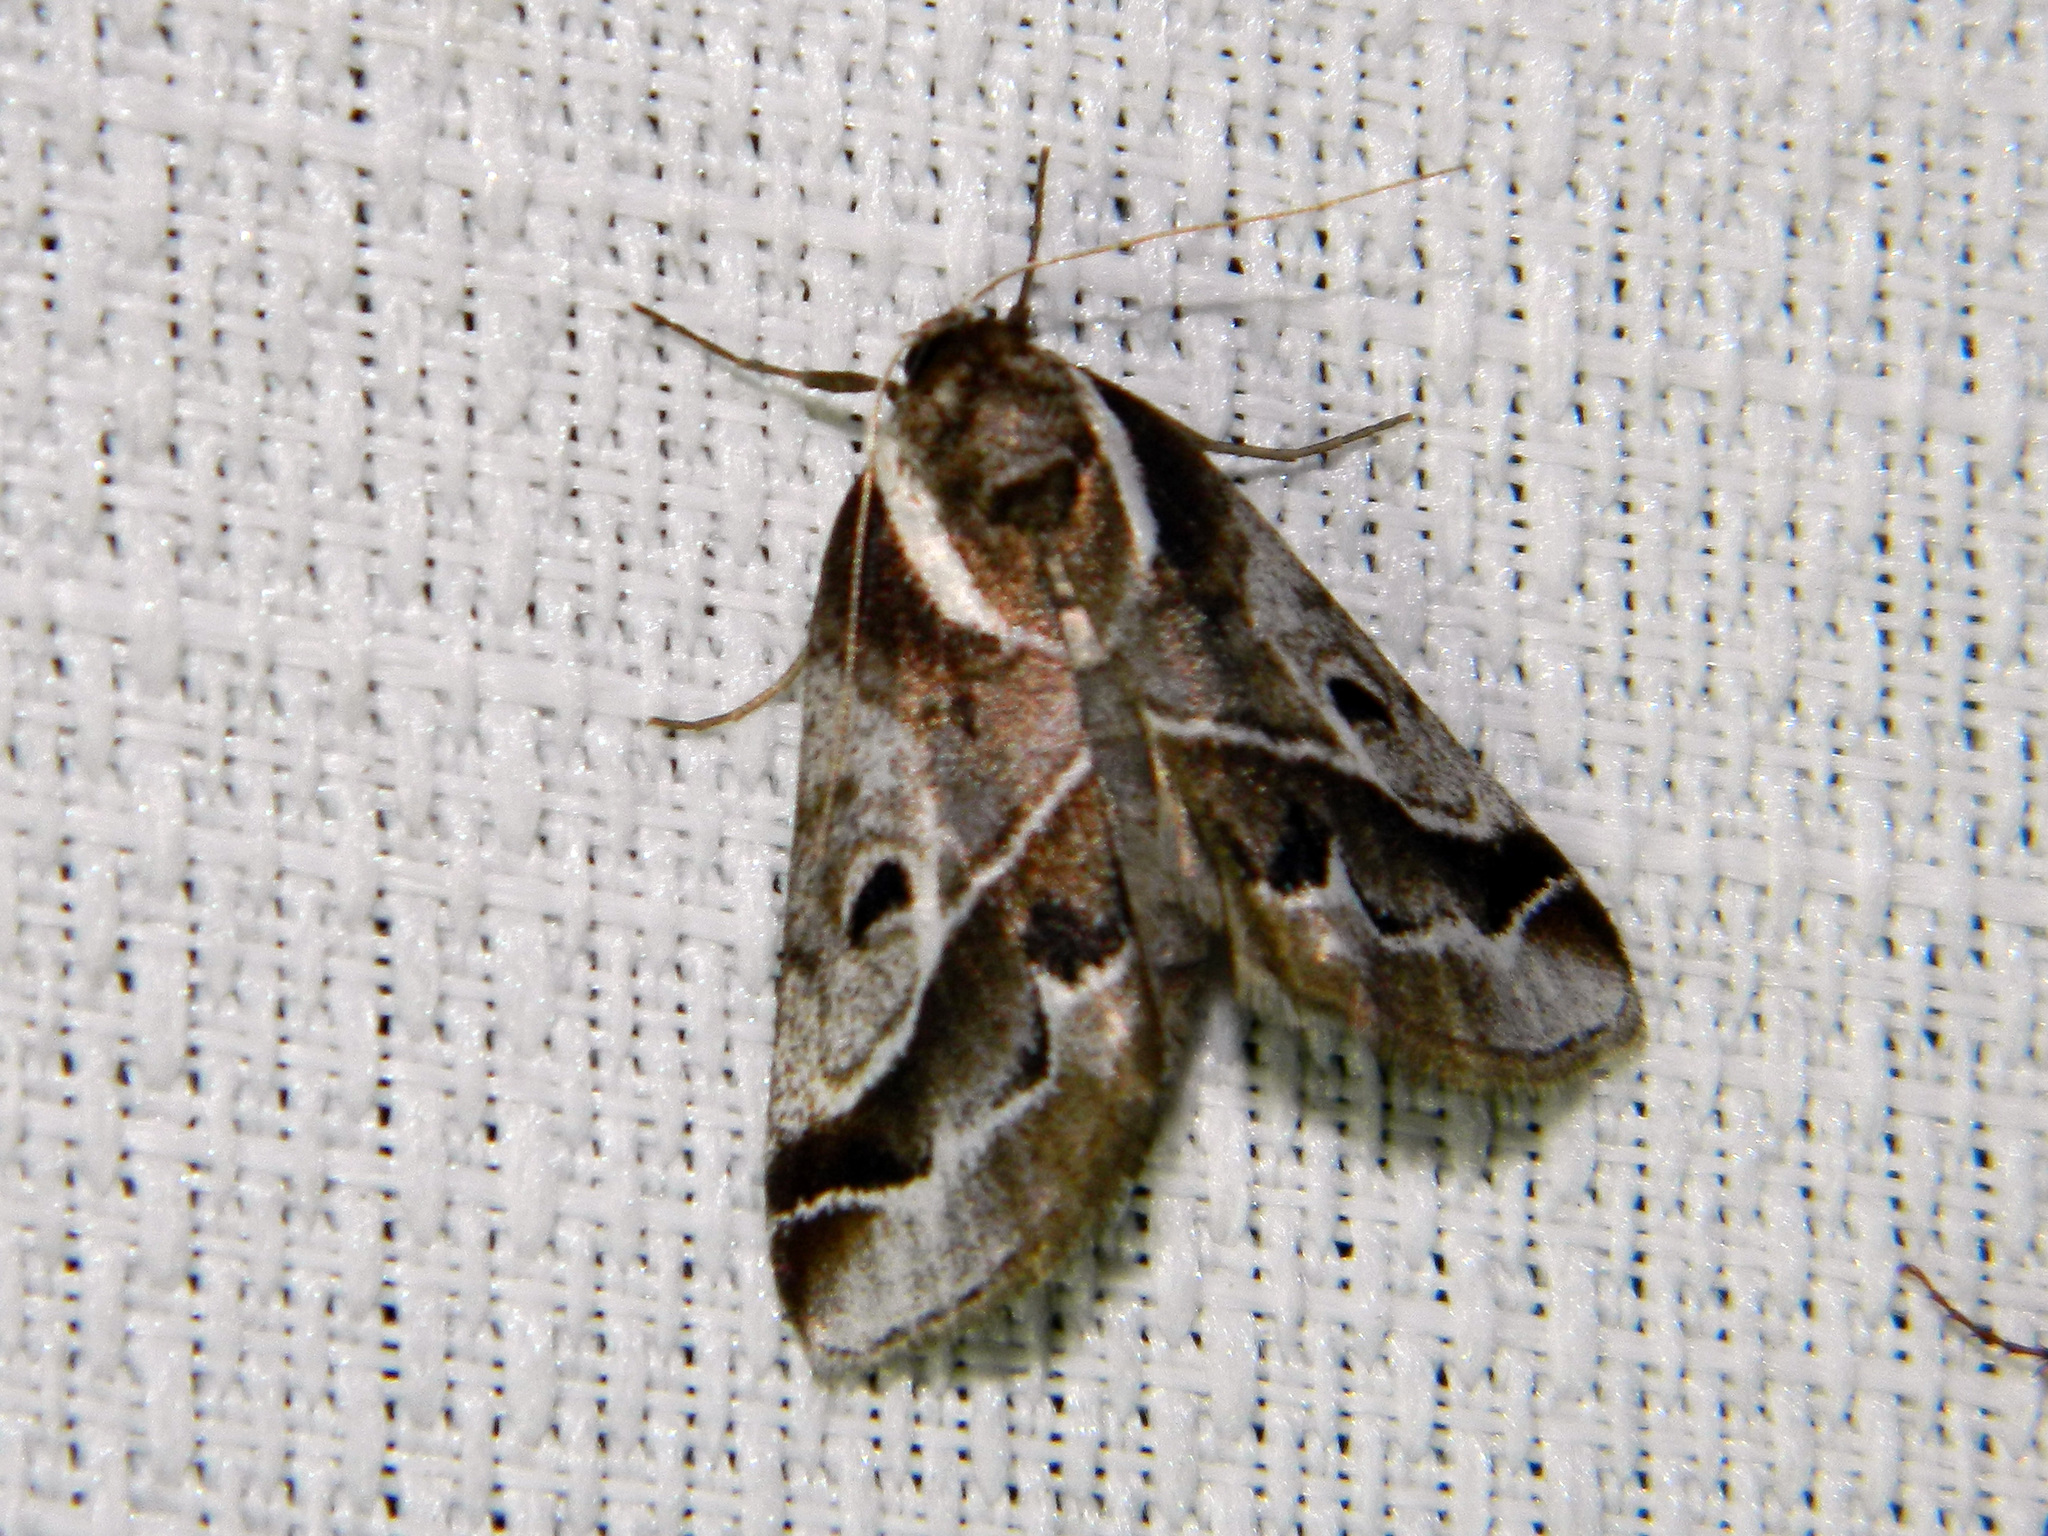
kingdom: Animalia
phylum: Arthropoda
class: Insecta
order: Lepidoptera
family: Nolidae
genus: Baileya
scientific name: Baileya doubledayi
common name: Doubleday's baileya moth
